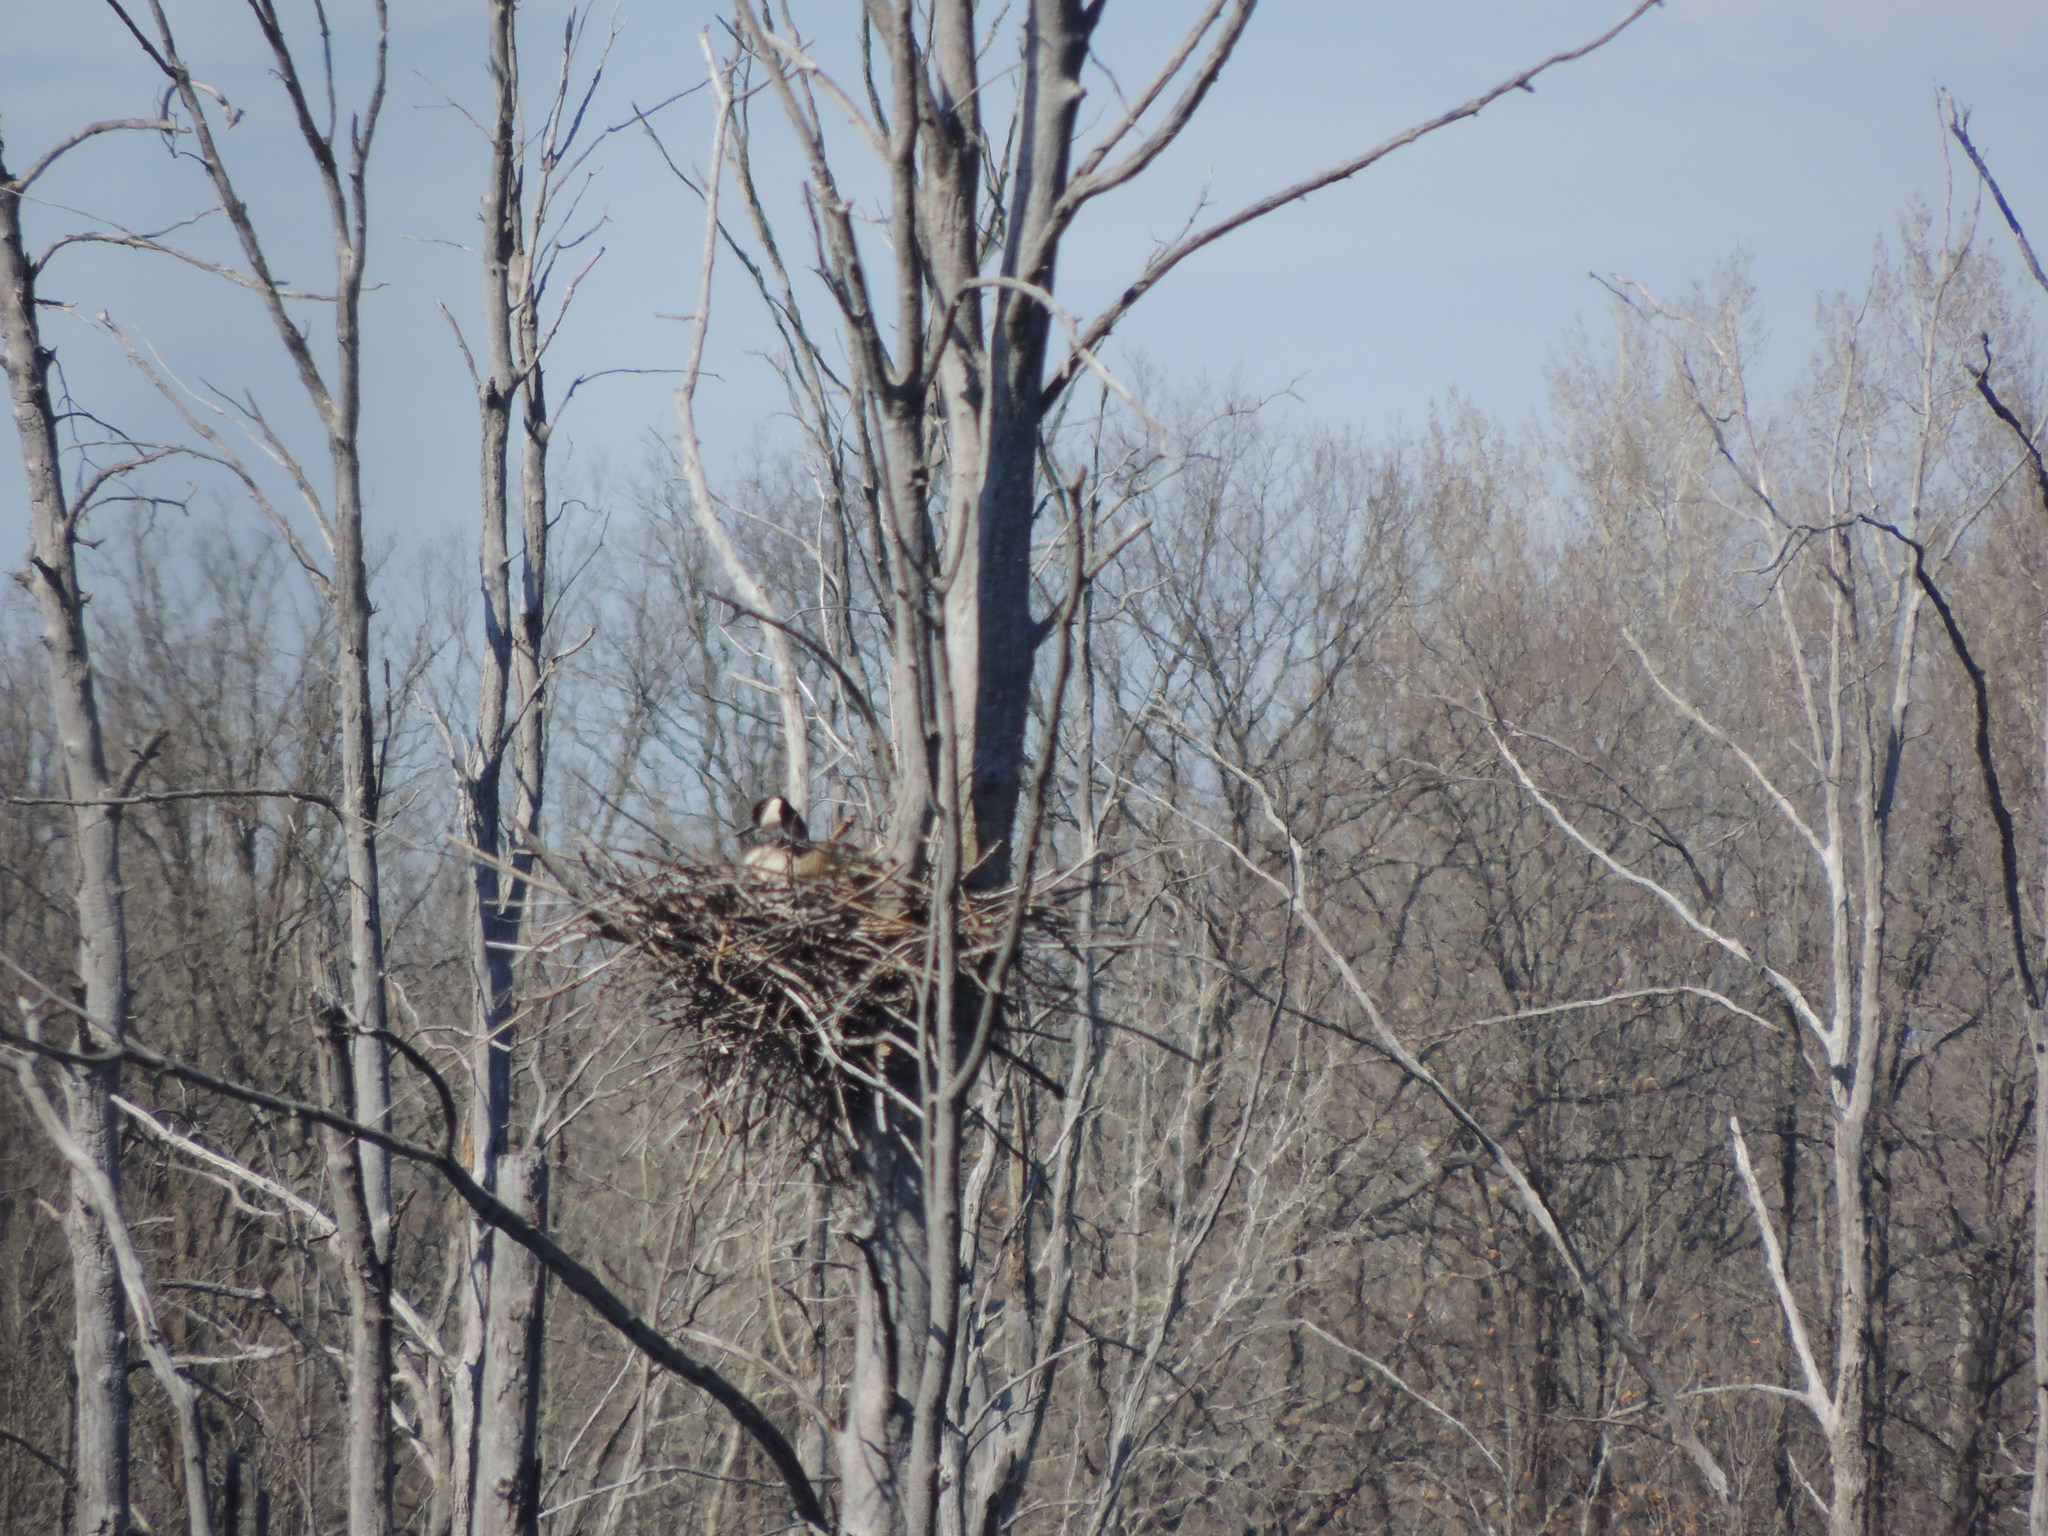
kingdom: Animalia
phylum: Chordata
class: Aves
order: Anseriformes
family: Anatidae
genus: Branta
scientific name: Branta canadensis
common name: Canada goose
